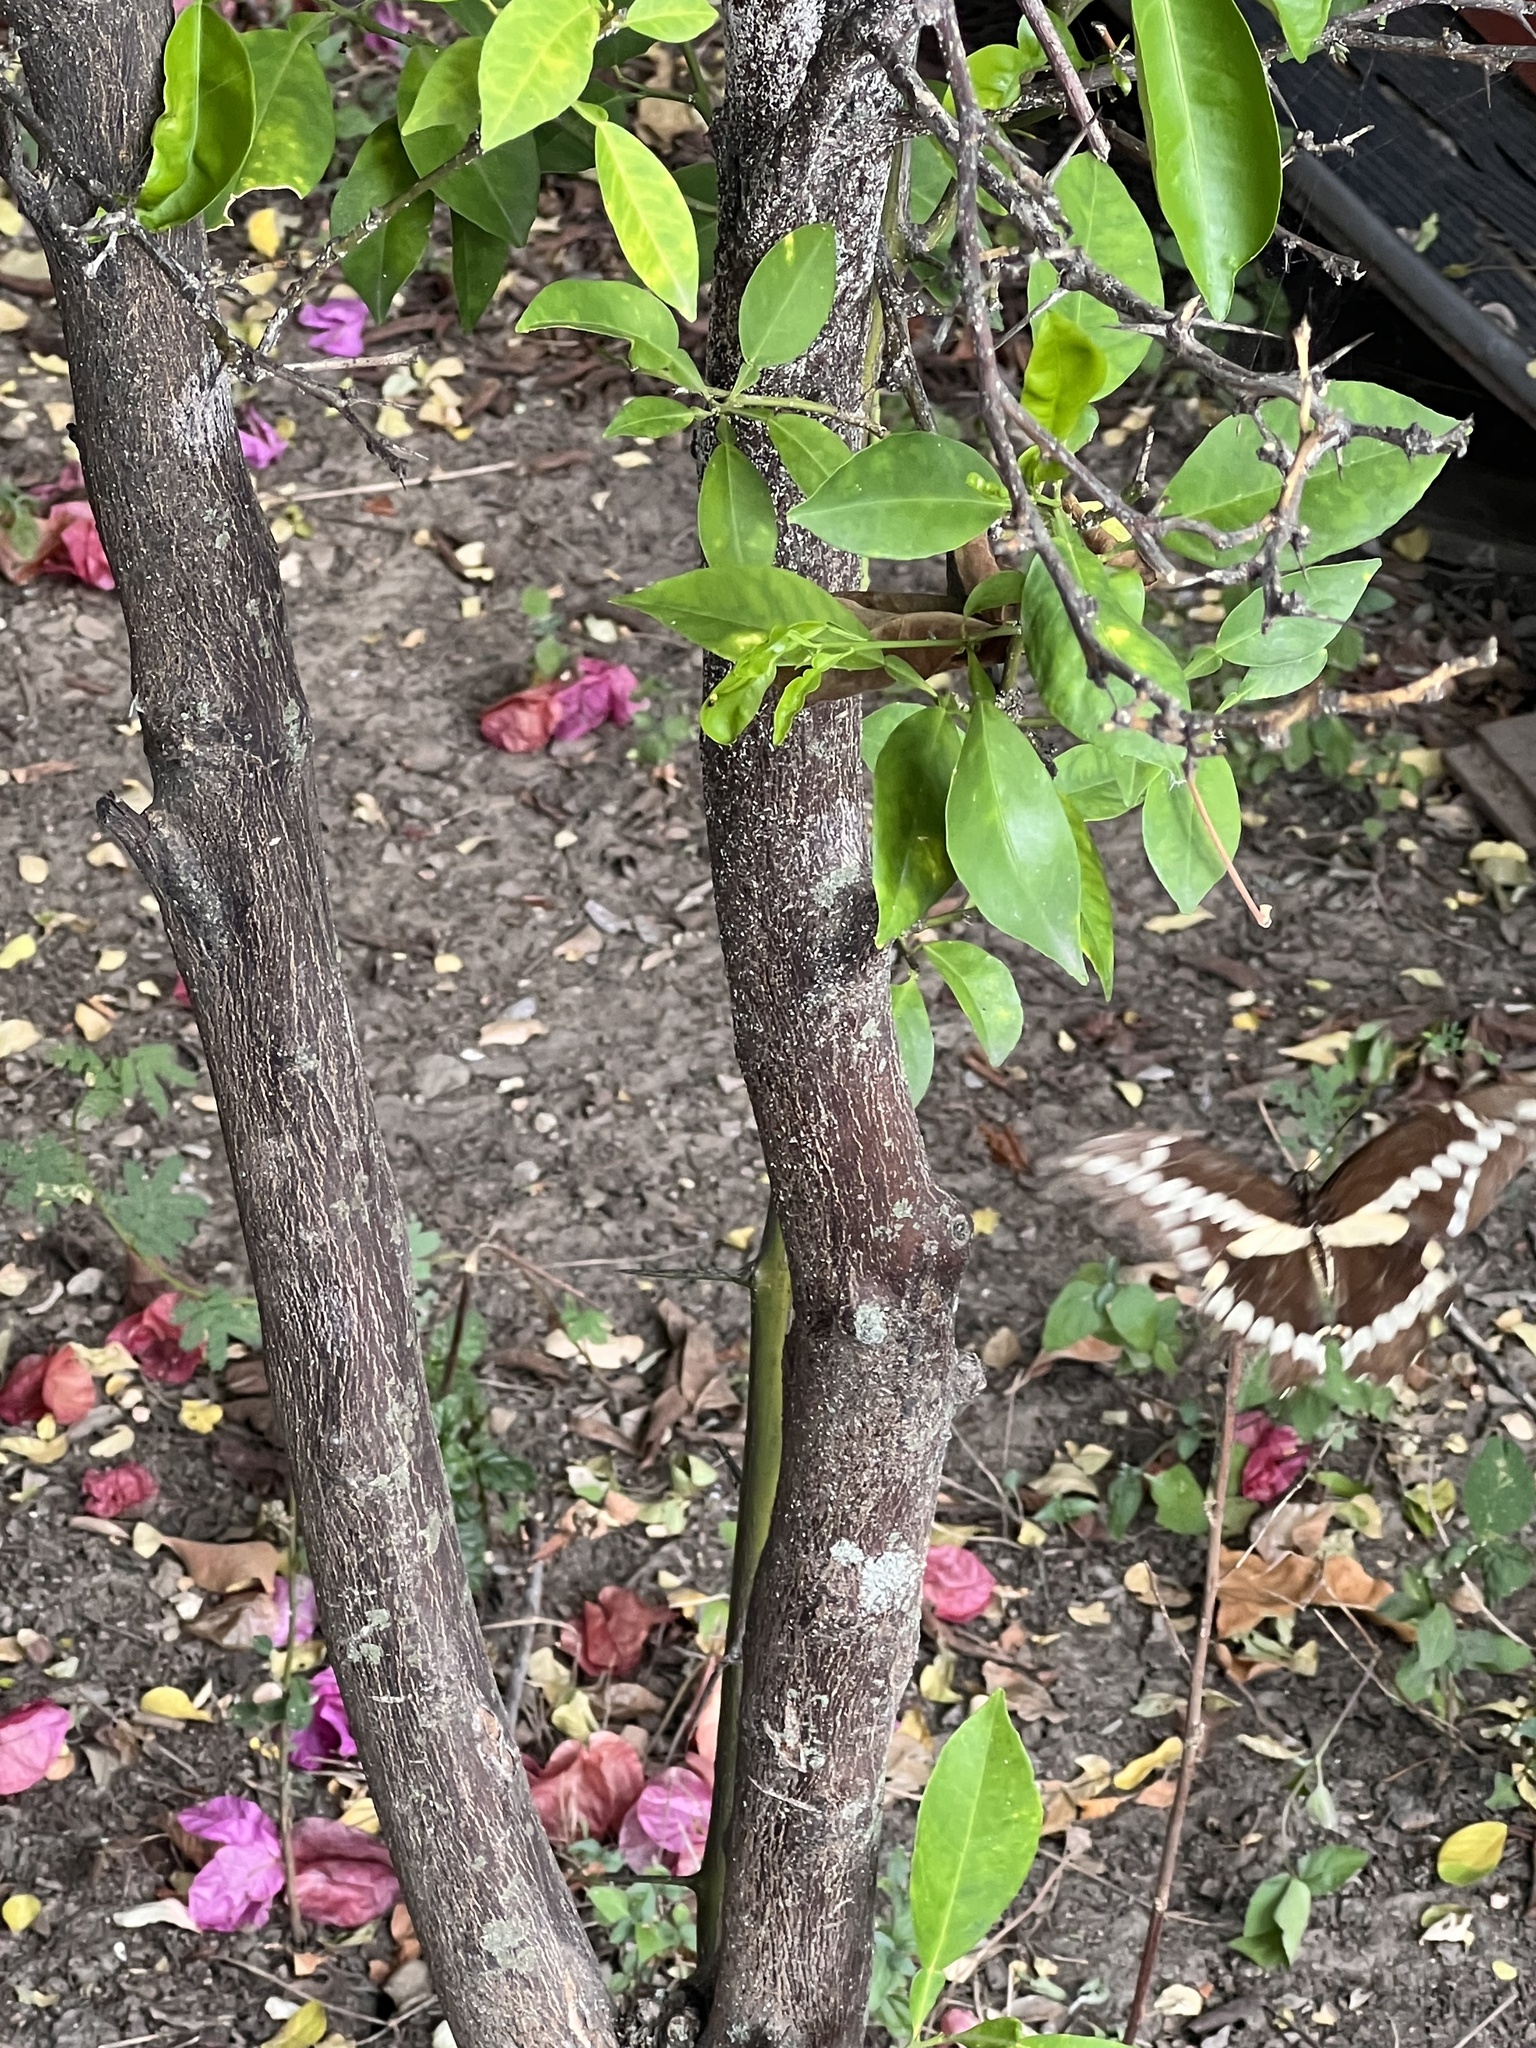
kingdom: Animalia
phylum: Arthropoda
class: Insecta
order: Lepidoptera
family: Papilionidae
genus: Papilio
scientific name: Papilio rumiko
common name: Western giant swallowtail
